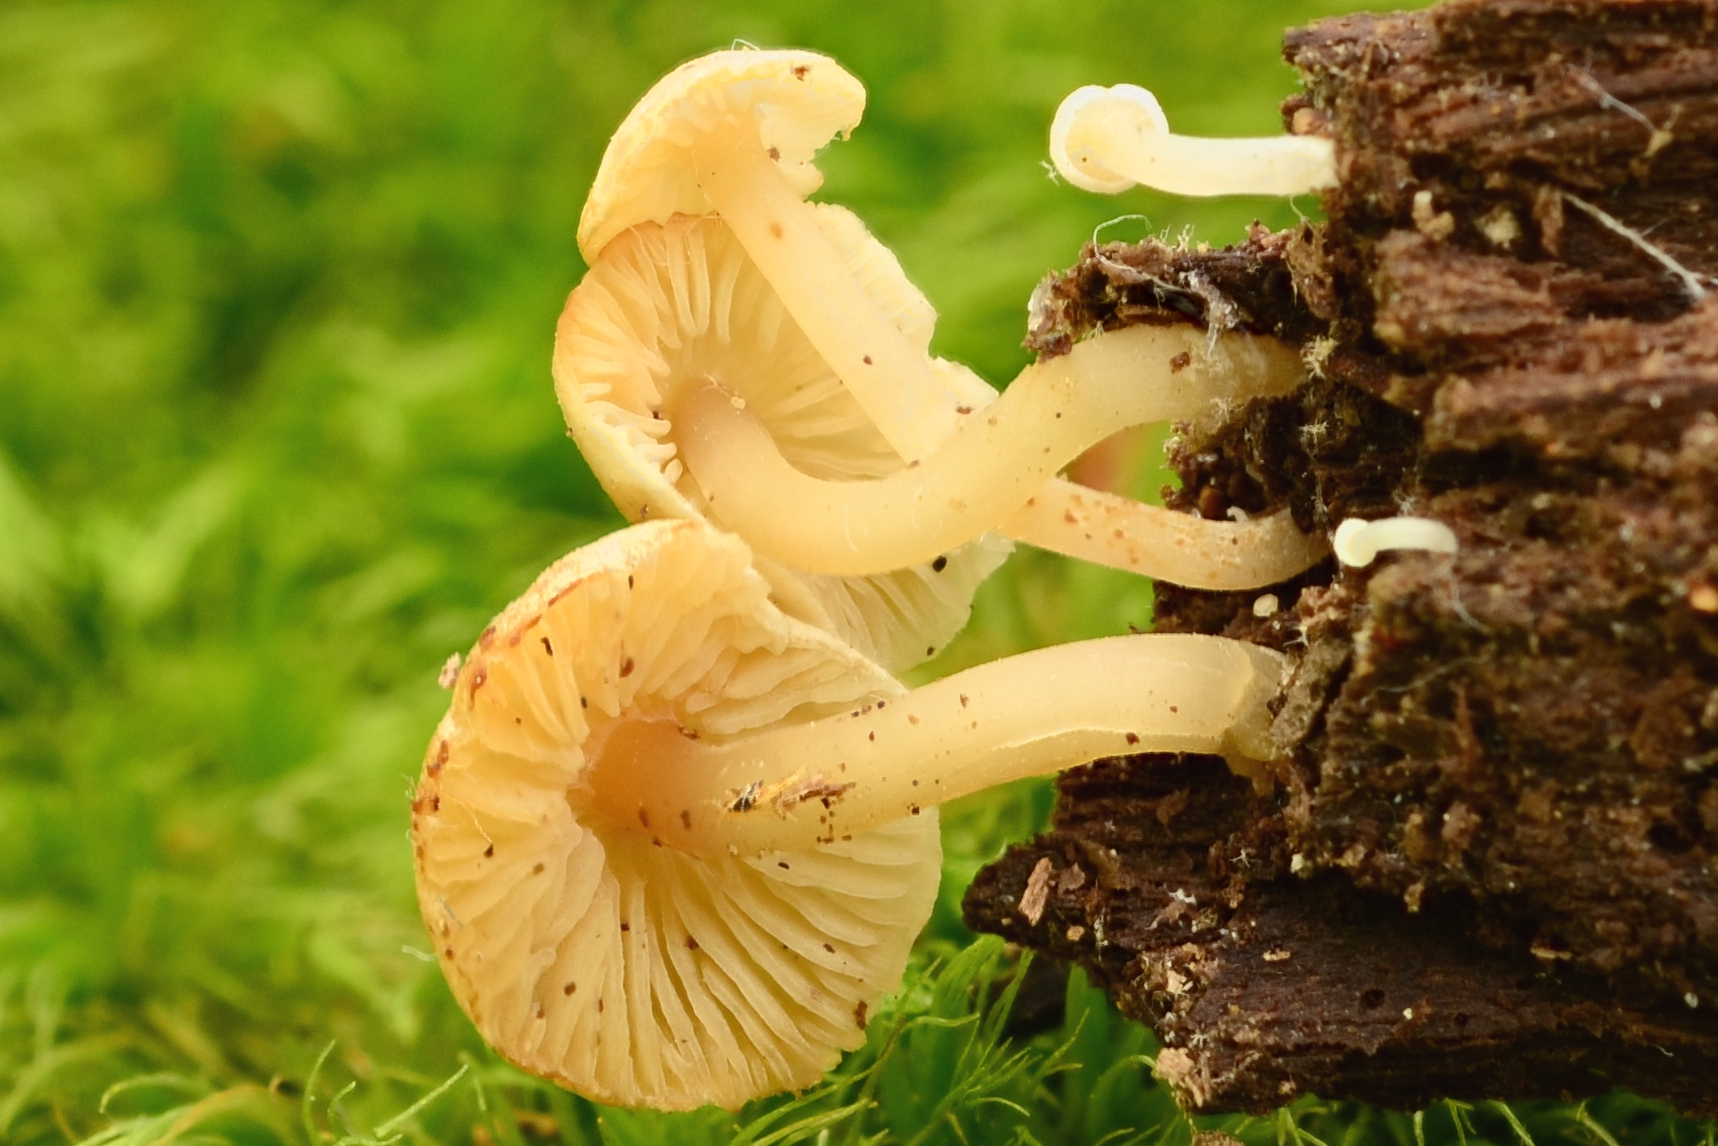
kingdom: Fungi
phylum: Basidiomycota
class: Agaricomycetes
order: Agaricales
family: Callistosporiaceae
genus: Callistosporium
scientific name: Callistosporium pseudofelleum
